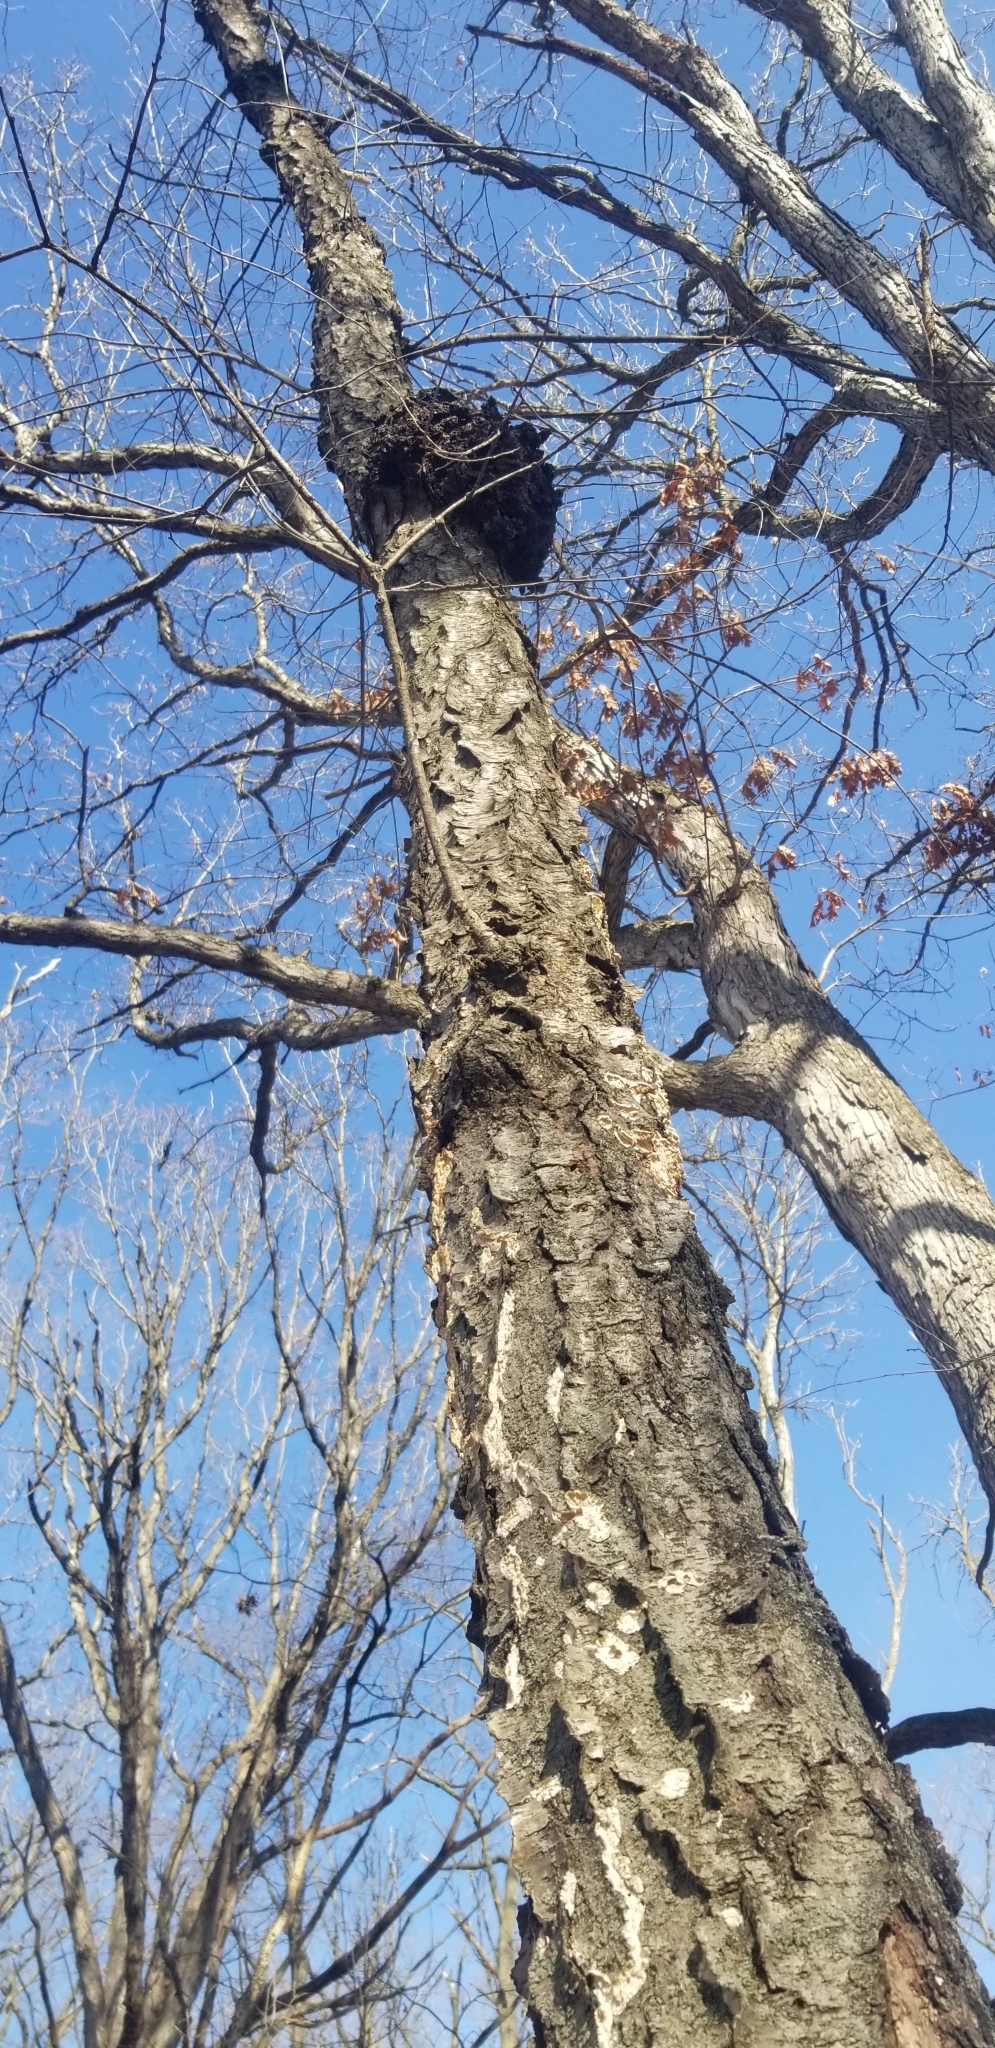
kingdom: Plantae
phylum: Tracheophyta
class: Magnoliopsida
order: Rosales
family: Rosaceae
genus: Prunus
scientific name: Prunus serotina
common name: Black cherry
